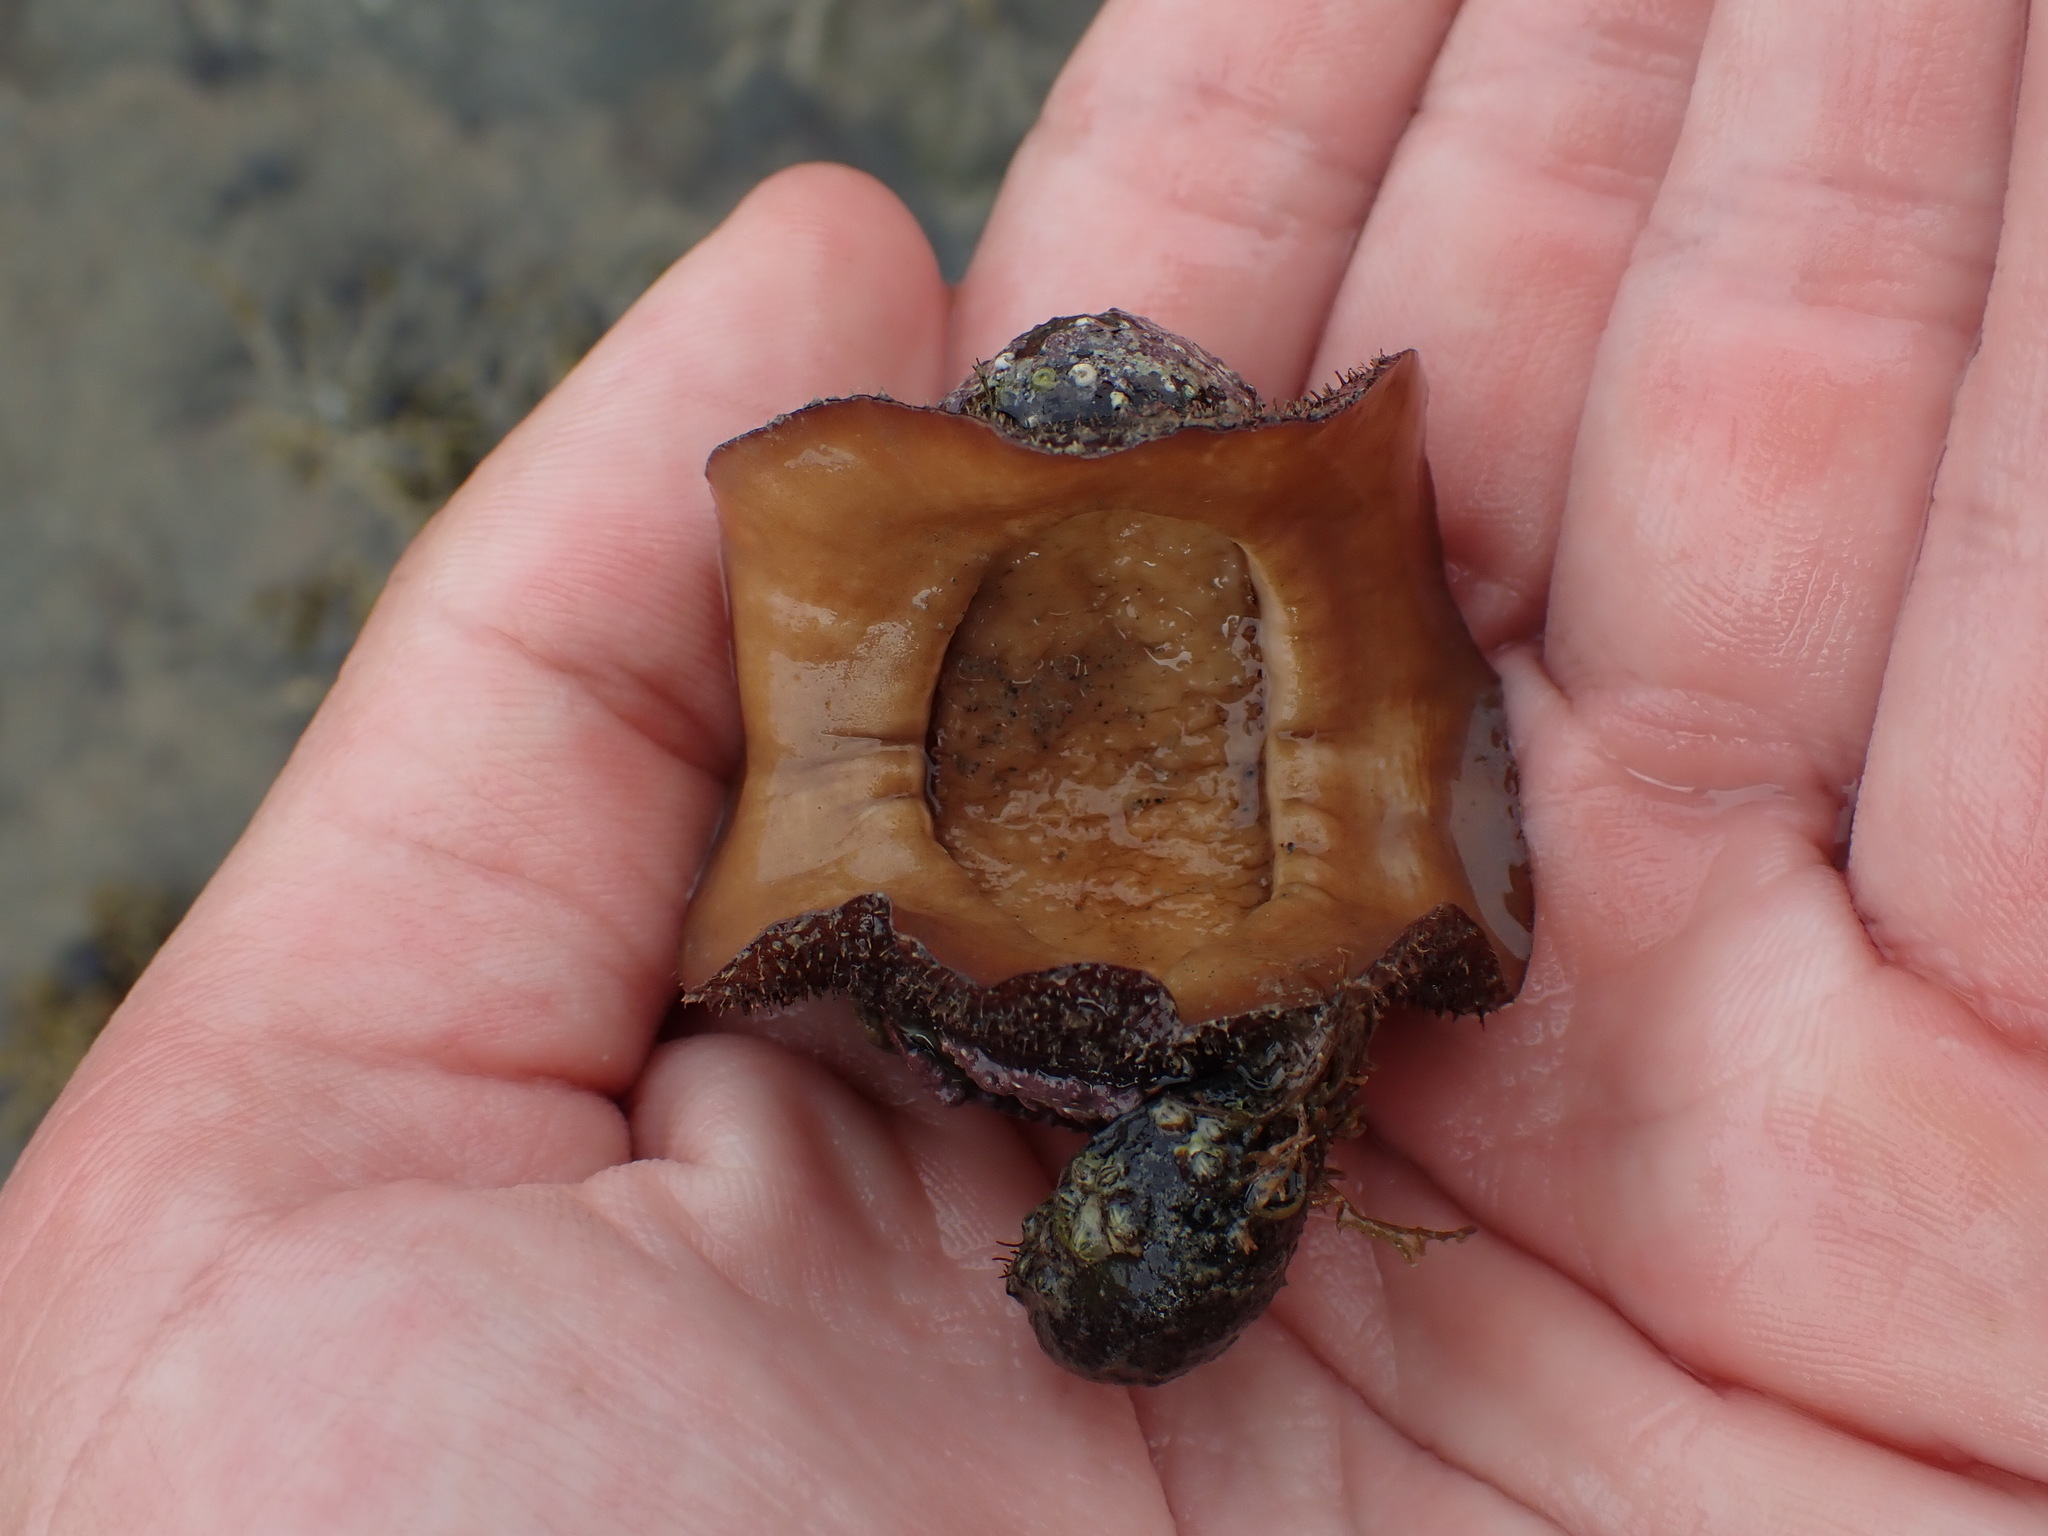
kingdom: Animalia
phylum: Mollusca
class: Polyplacophora
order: Callochitonida
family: Callochitonidae
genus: Eudoxochiton
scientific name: Eudoxochiton nobilis
